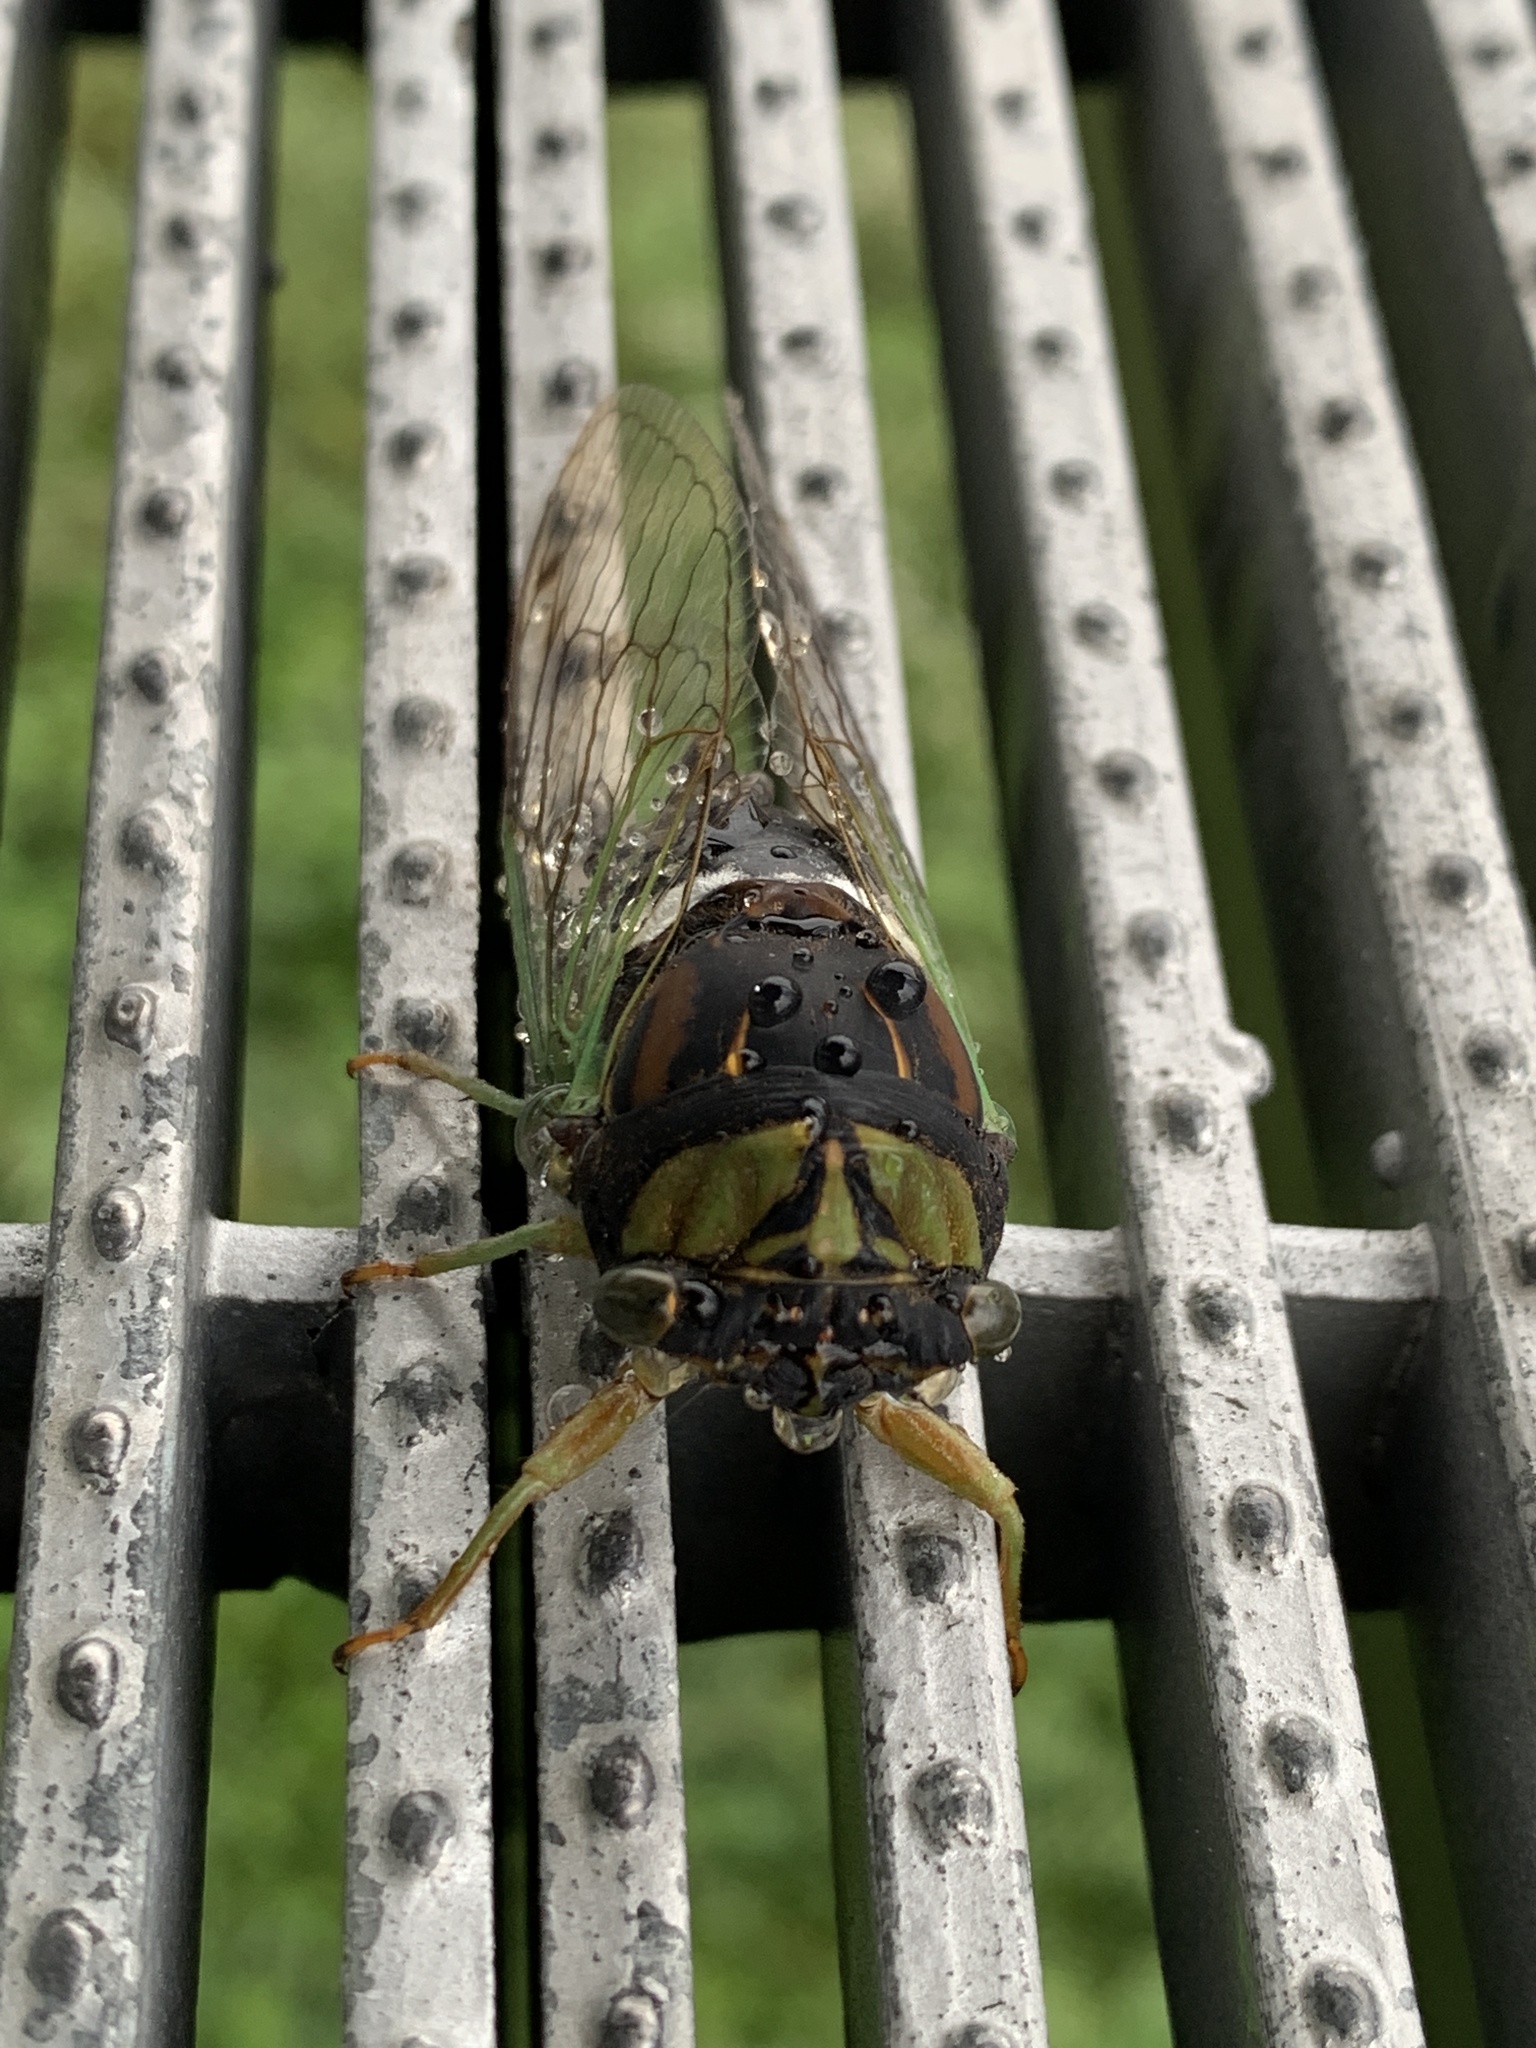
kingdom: Animalia
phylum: Arthropoda
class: Insecta
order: Hemiptera
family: Cicadidae
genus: Neotibicen
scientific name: Neotibicen tibicen
